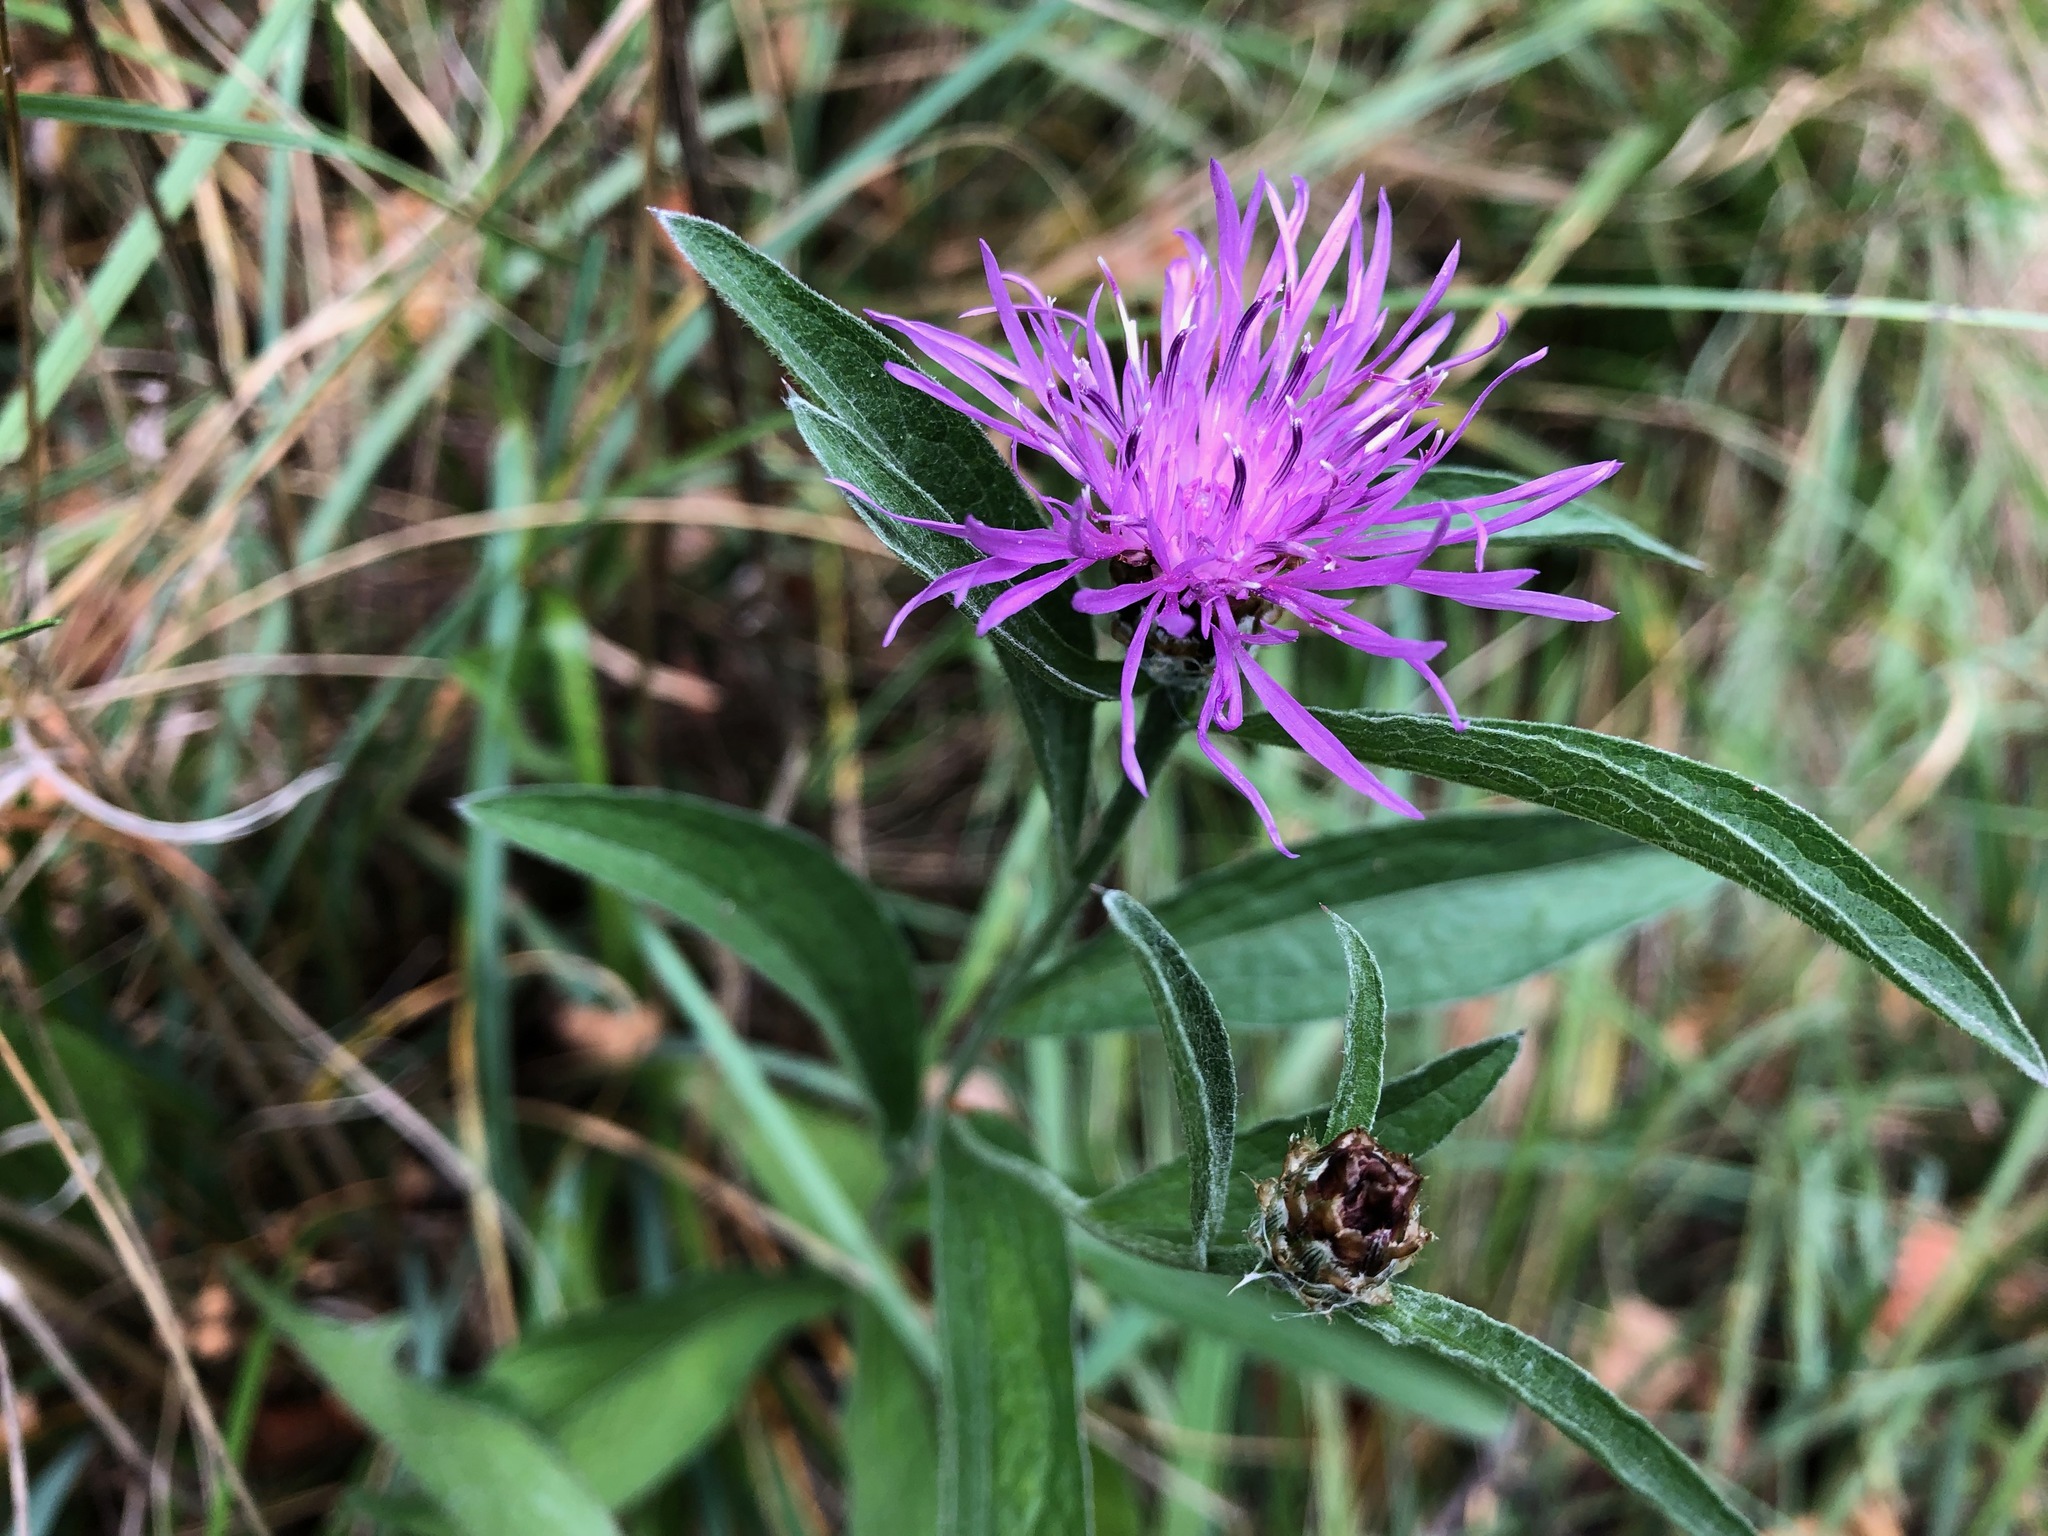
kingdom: Plantae
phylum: Tracheophyta
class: Magnoliopsida
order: Asterales
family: Asteraceae
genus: Centaurea
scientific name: Centaurea jacea
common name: Brown knapweed
